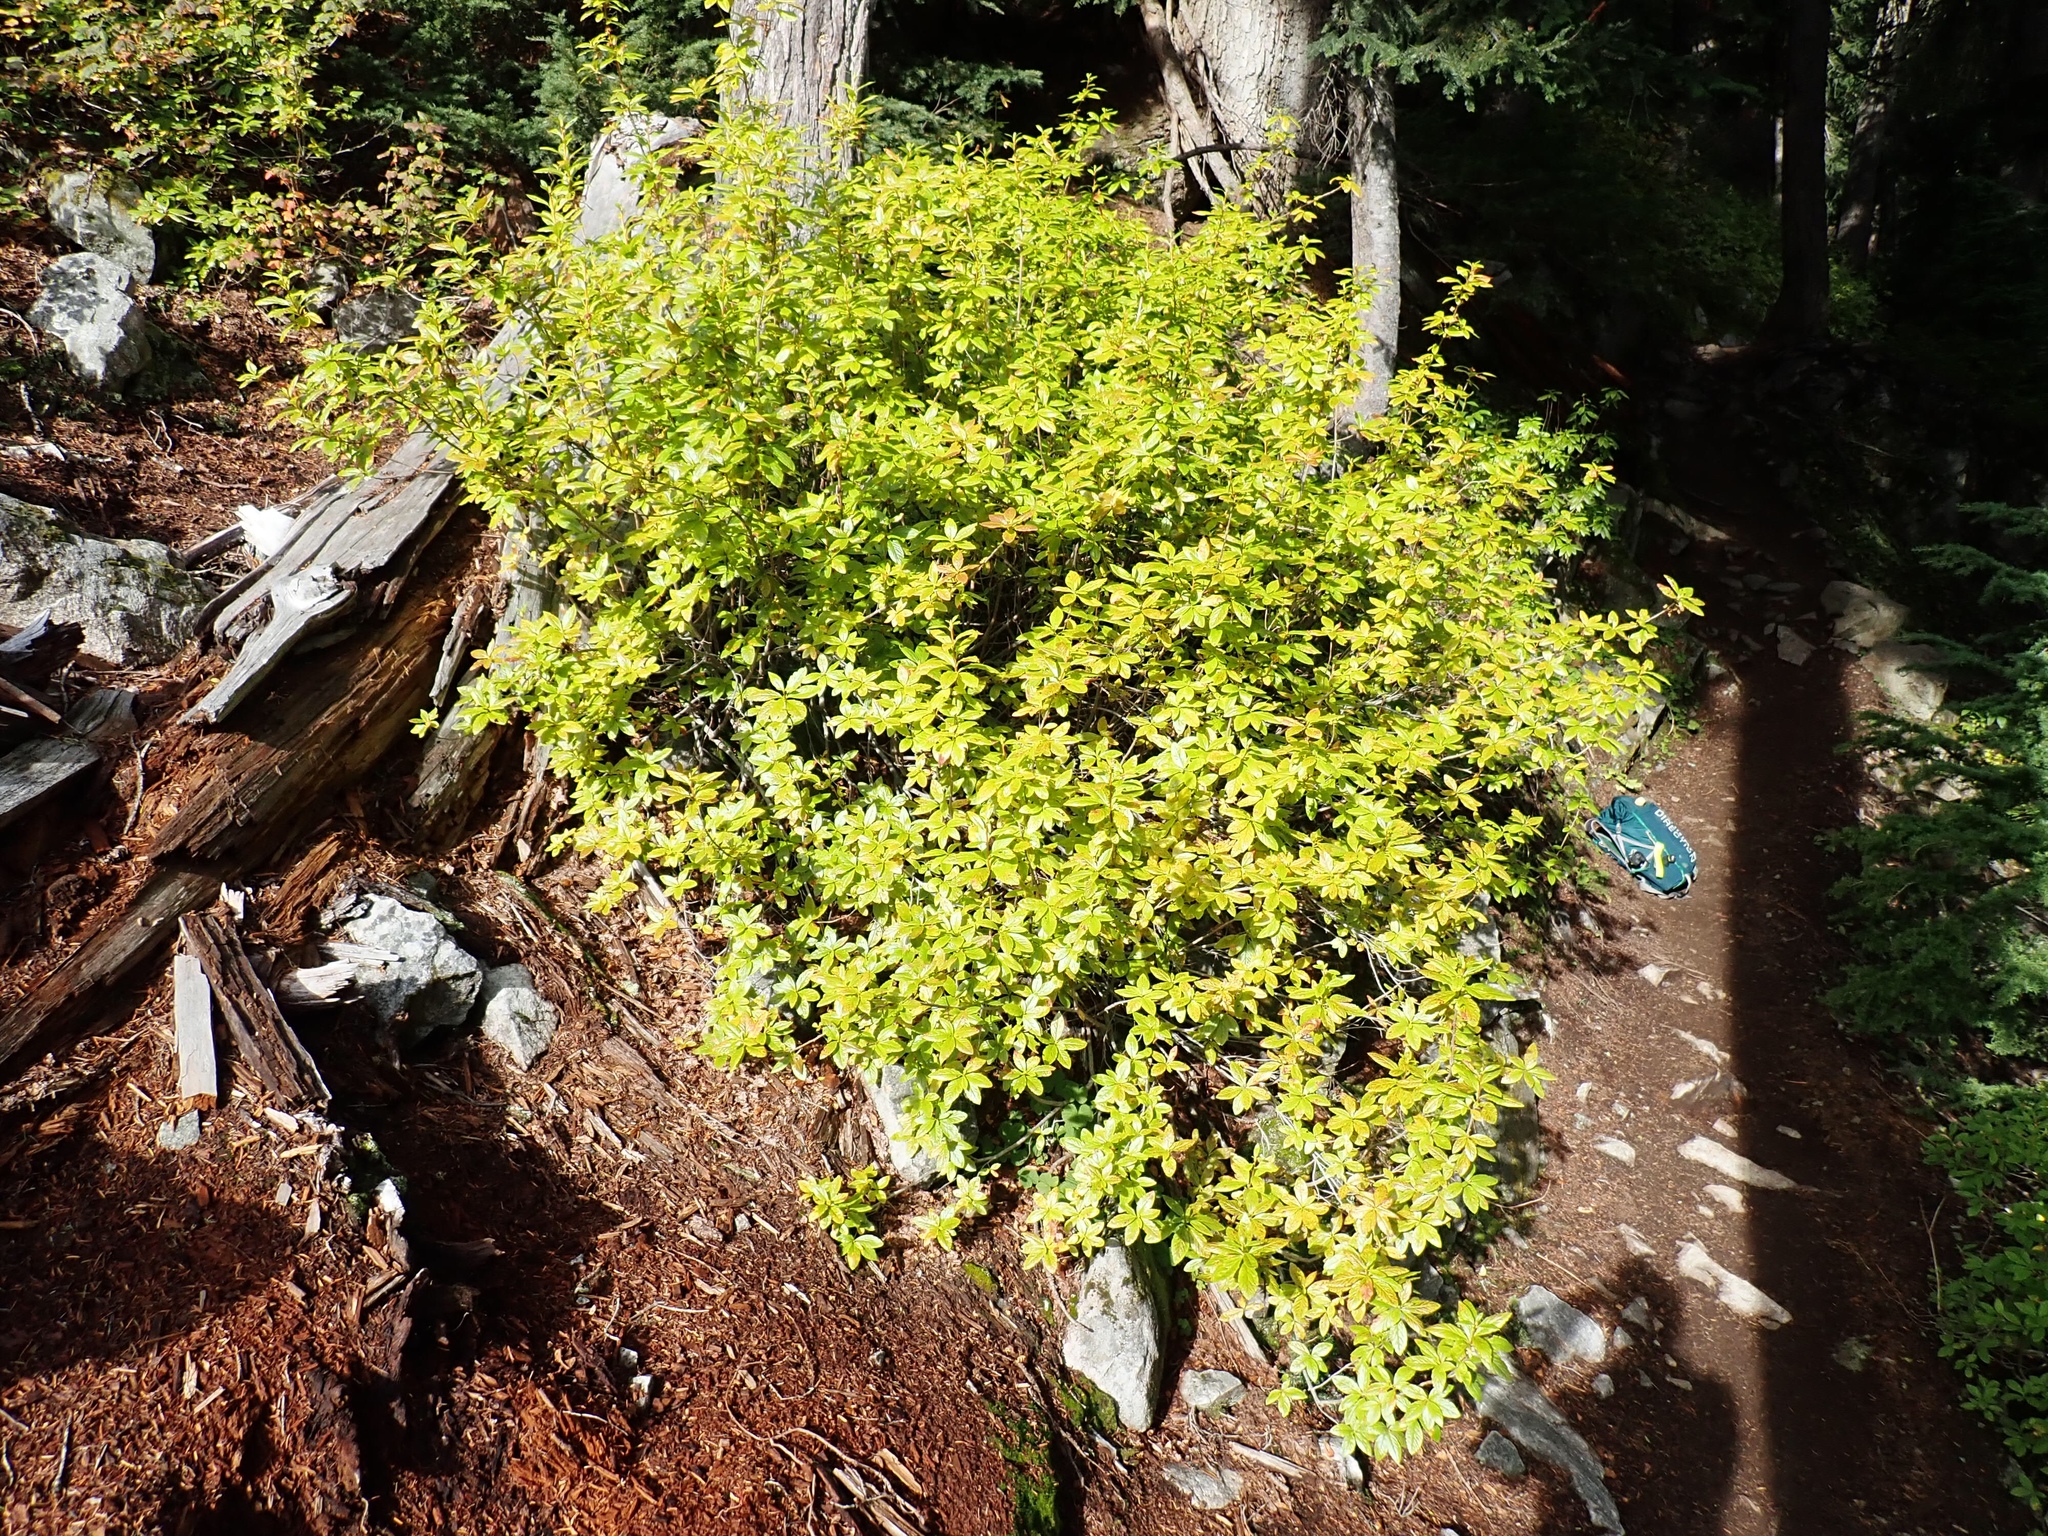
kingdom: Plantae
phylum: Tracheophyta
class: Magnoliopsida
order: Ericales
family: Ericaceae
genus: Rhododendron
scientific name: Rhododendron albiflorum
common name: White rhododendron
